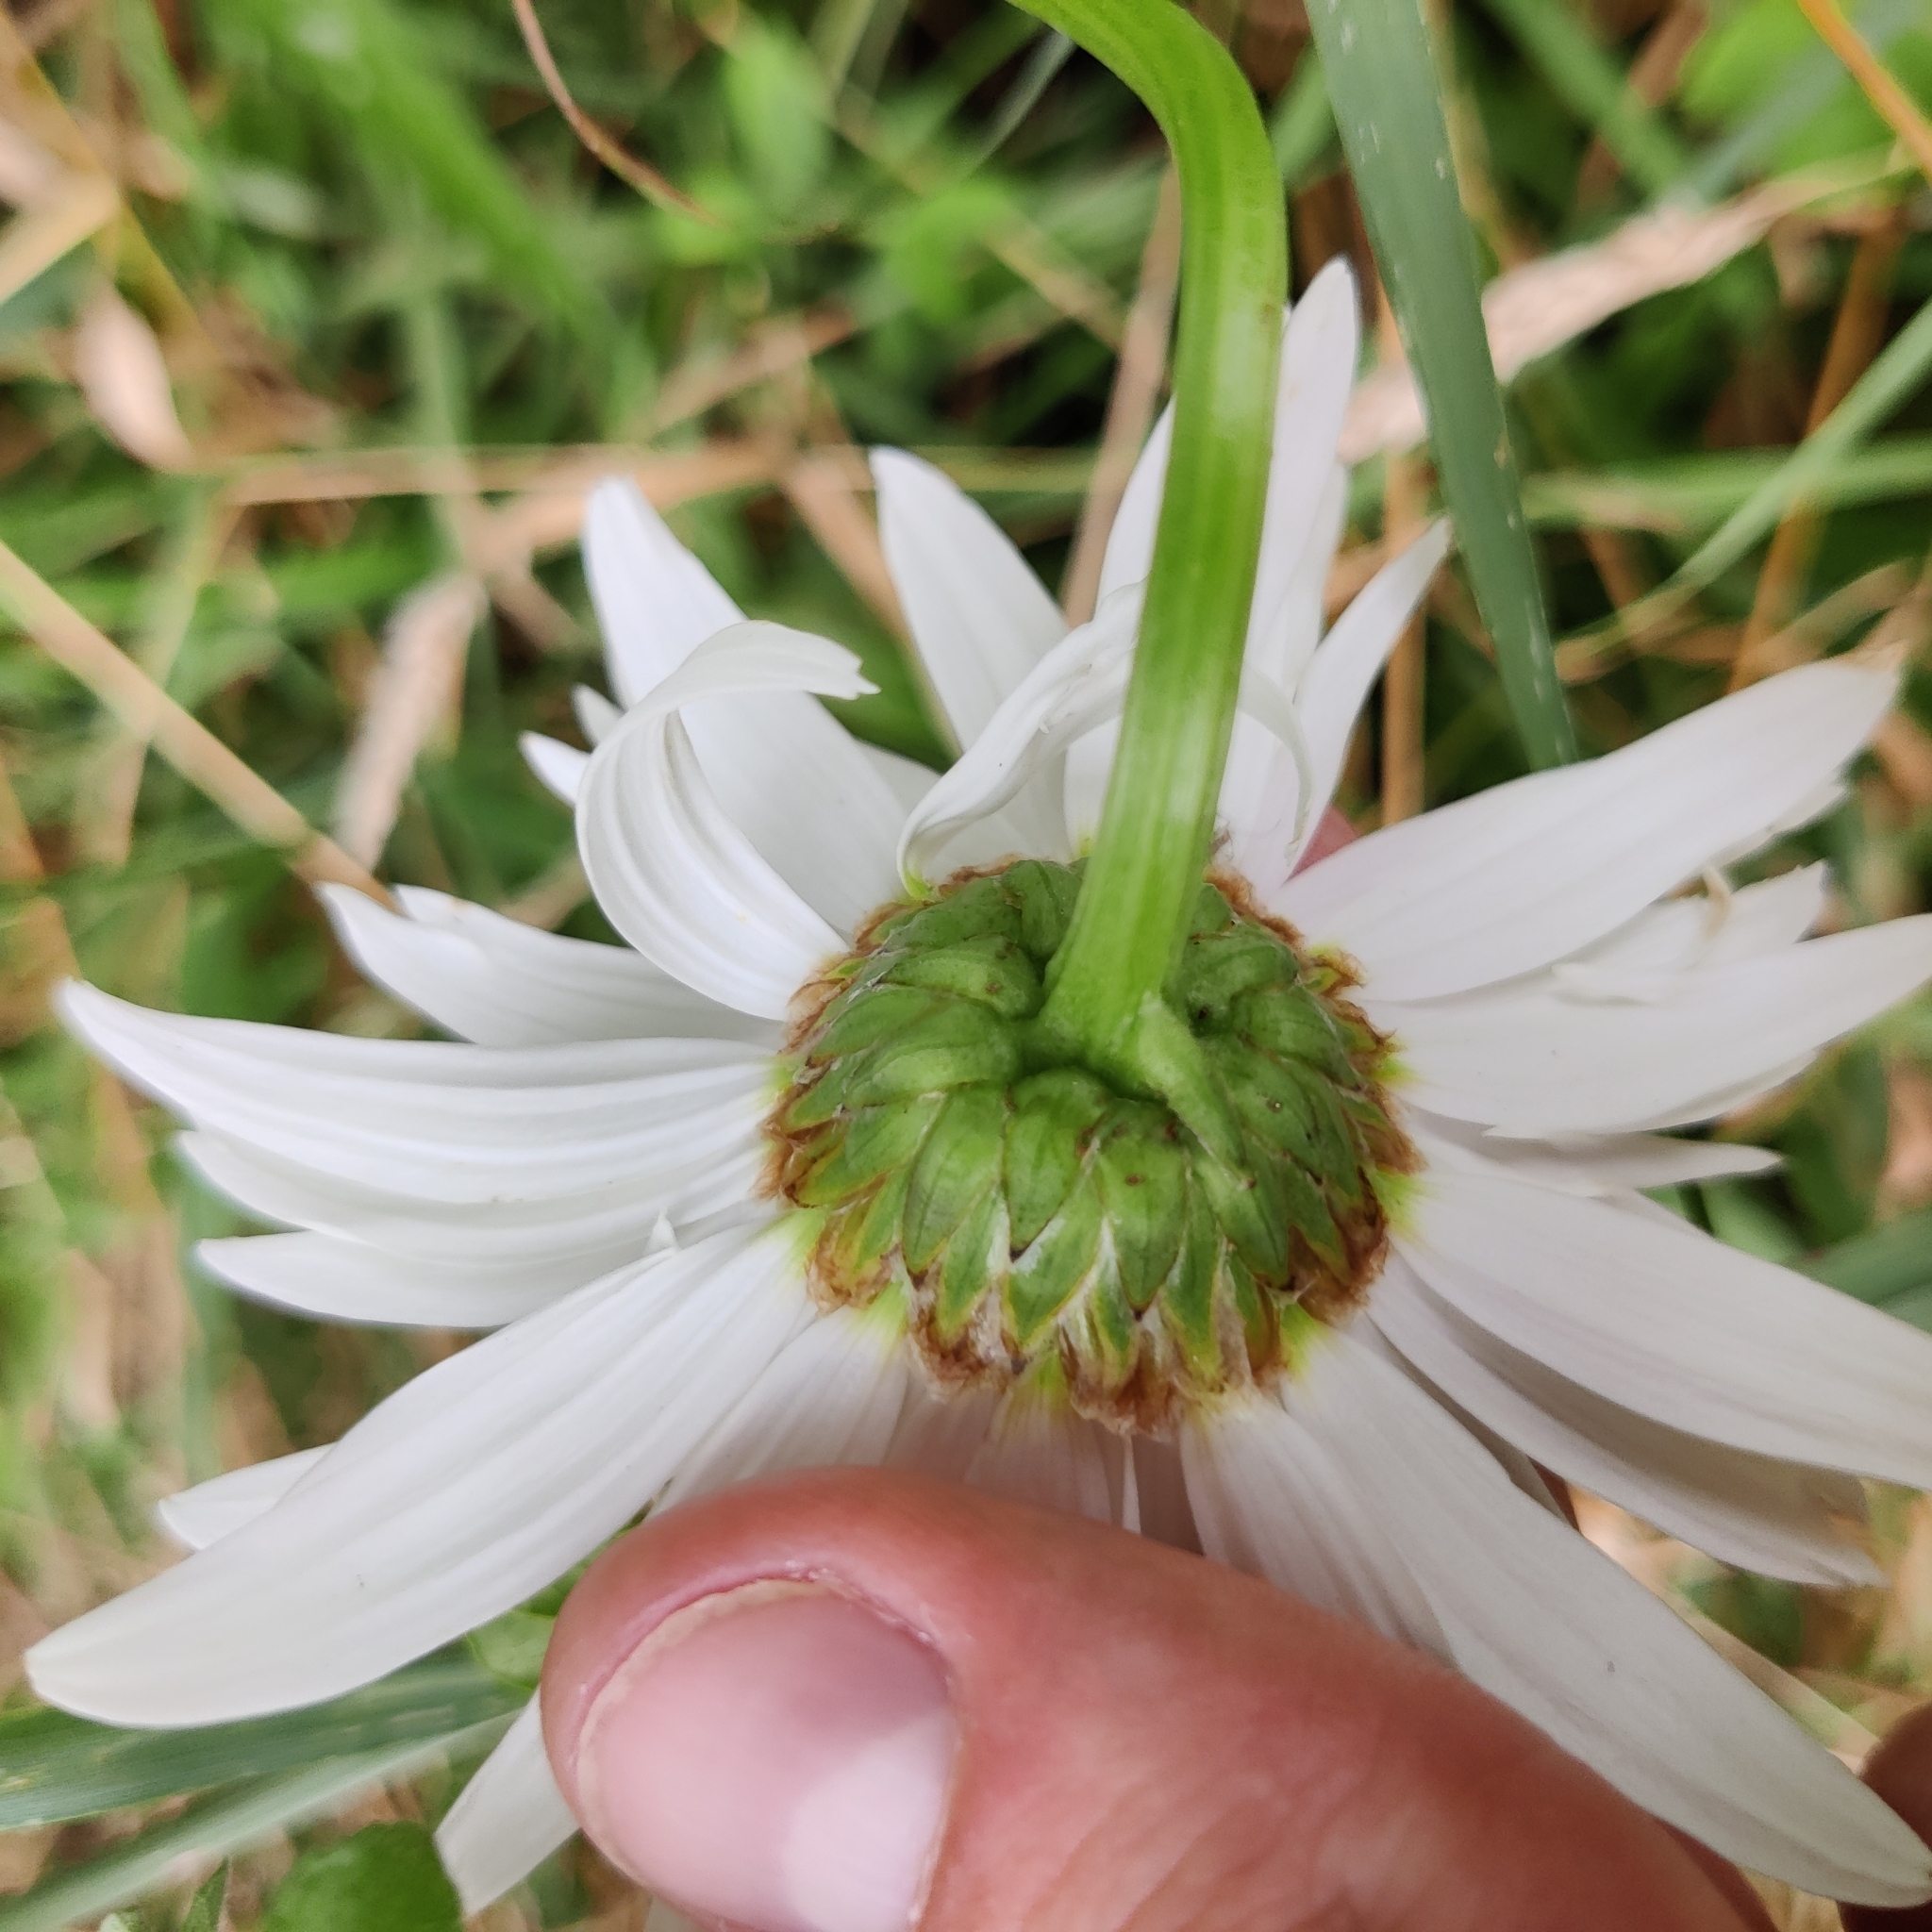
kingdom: Plantae
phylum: Tracheophyta
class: Magnoliopsida
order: Asterales
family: Asteraceae
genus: Leucanthemum
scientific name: Leucanthemum maximum
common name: Max chrysanthemum
